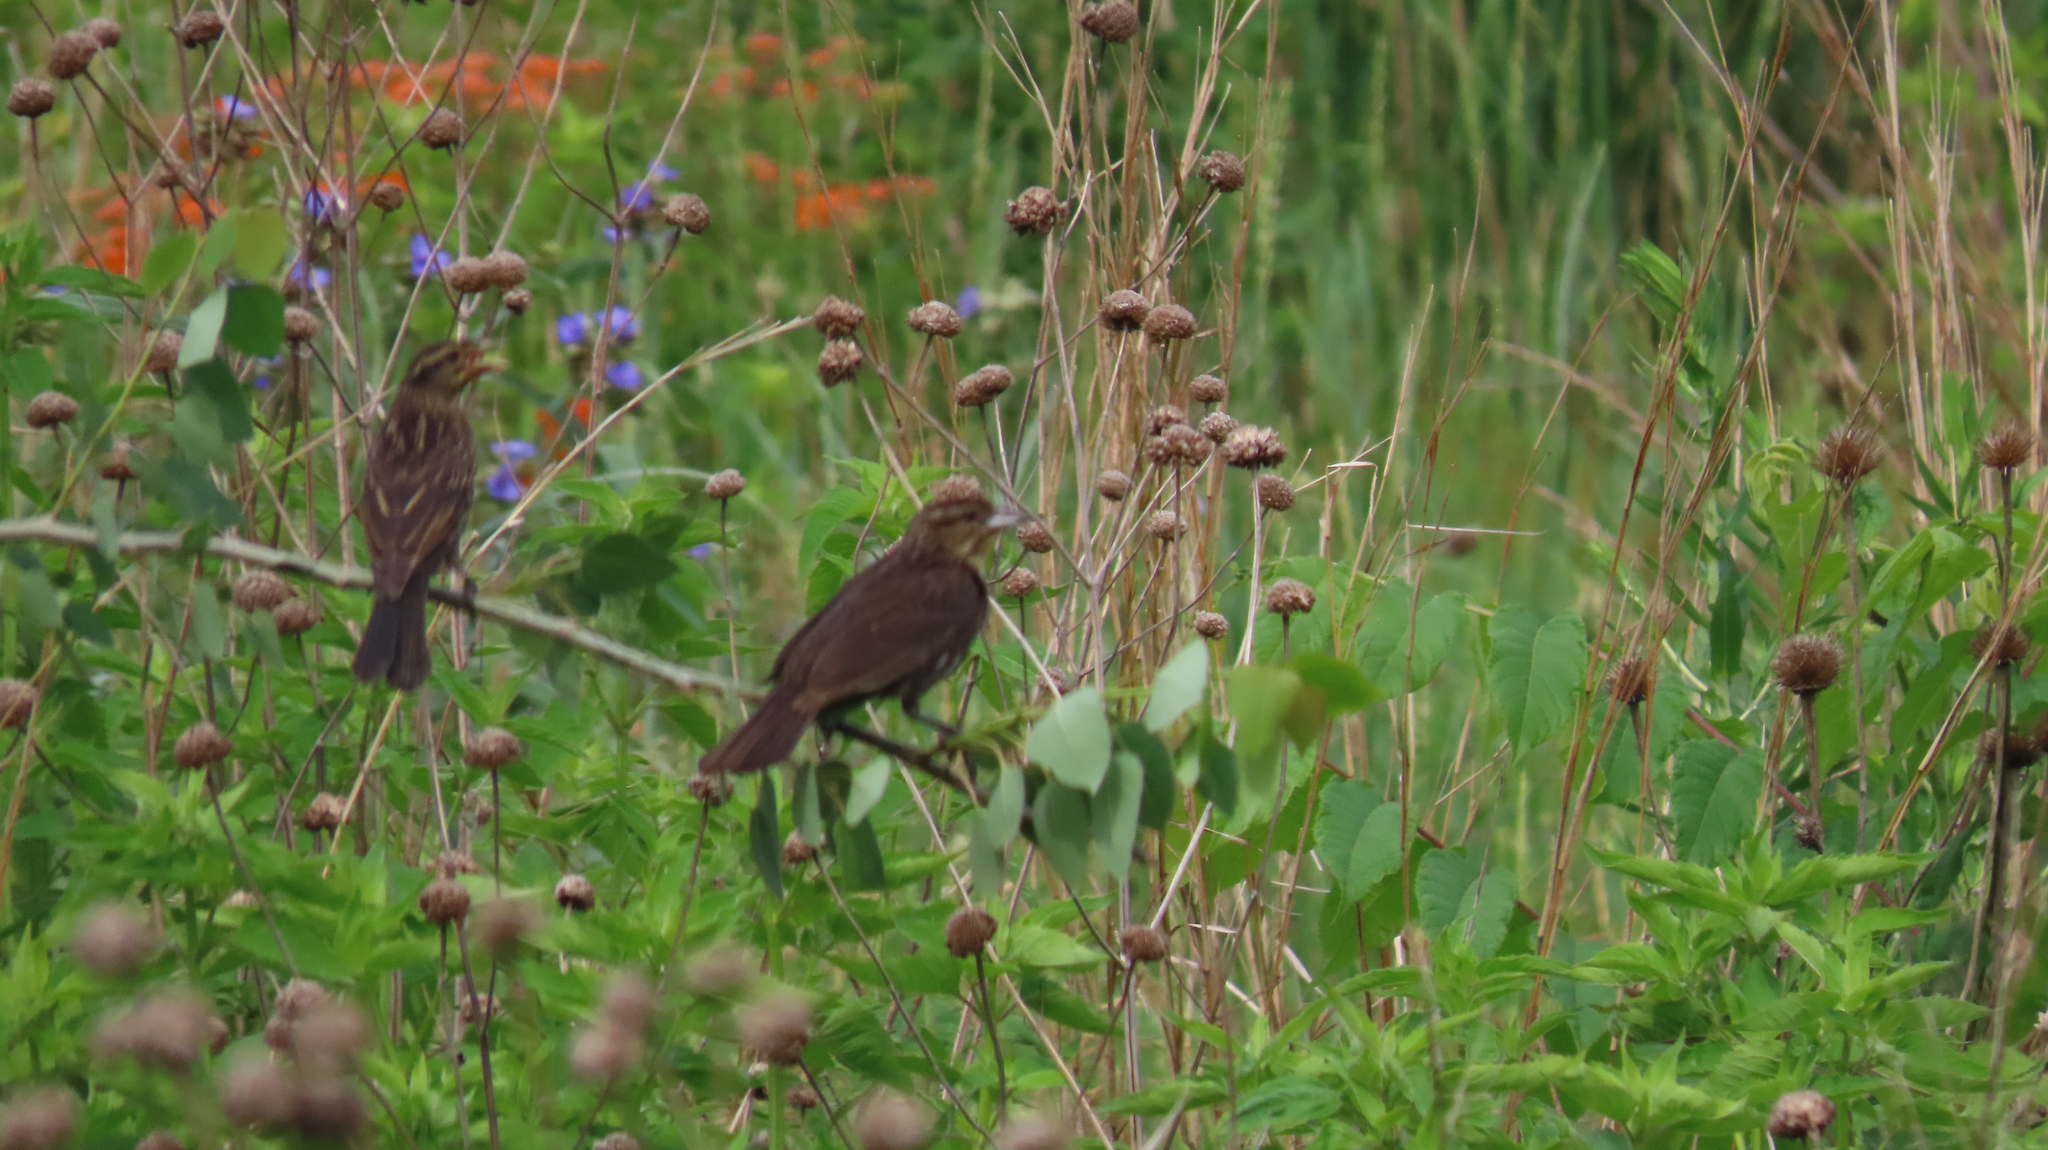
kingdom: Animalia
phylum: Chordata
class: Aves
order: Passeriformes
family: Icteridae
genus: Agelaius
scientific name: Agelaius phoeniceus
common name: Red-winged blackbird
